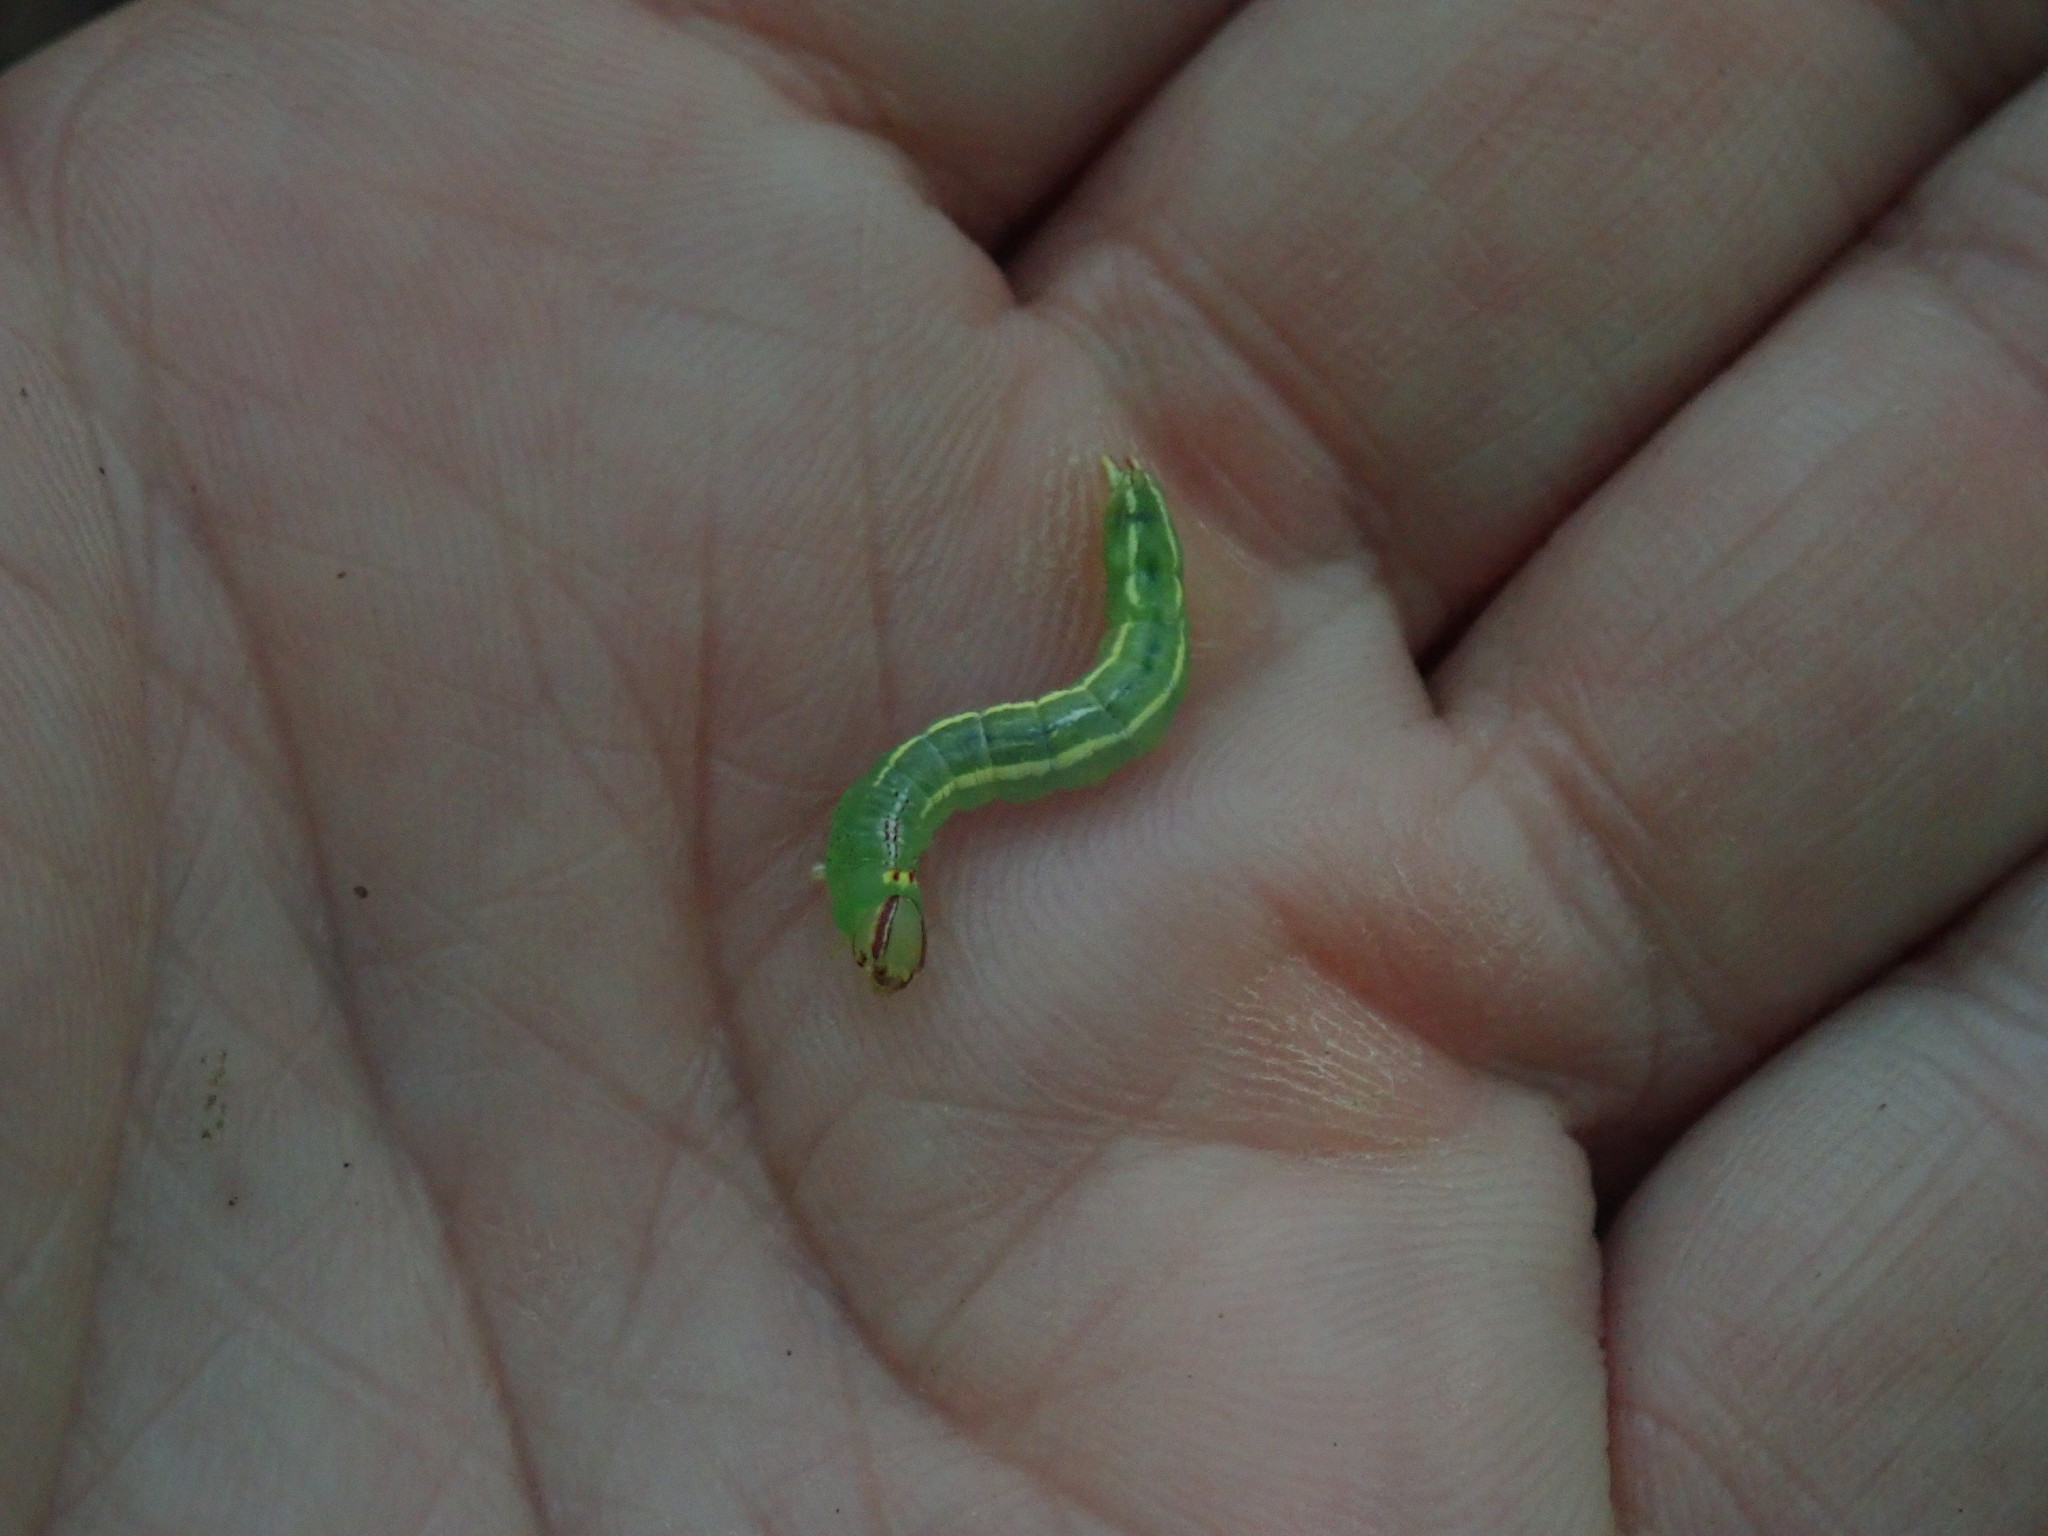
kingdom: Animalia
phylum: Arthropoda
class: Insecta
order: Lepidoptera
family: Notodontidae
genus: Disphragis
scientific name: Disphragis Cecrita guttivitta
